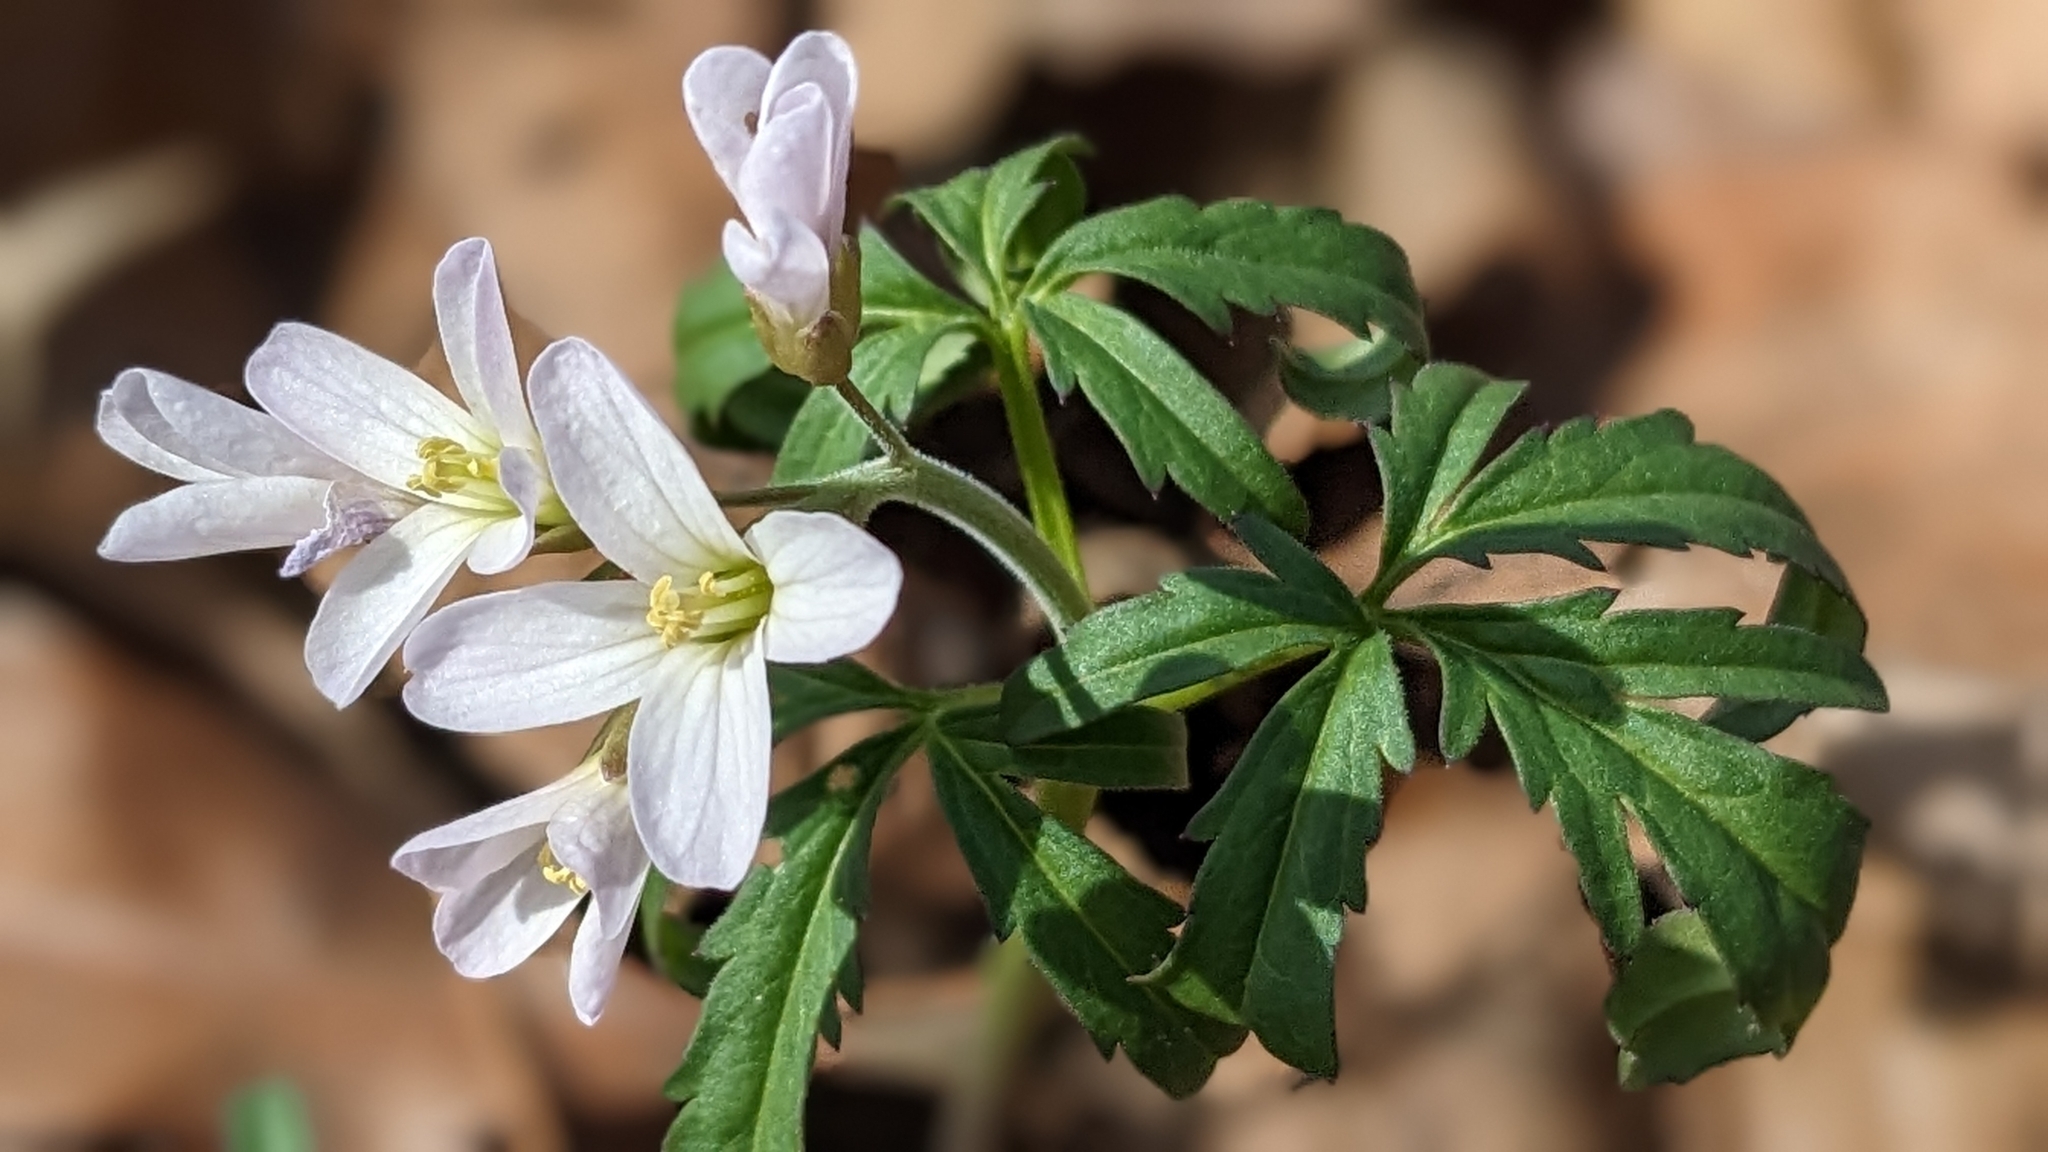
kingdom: Plantae
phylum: Tracheophyta
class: Magnoliopsida
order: Brassicales
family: Brassicaceae
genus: Cardamine
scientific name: Cardamine concatenata
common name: Cut-leaf toothcup
